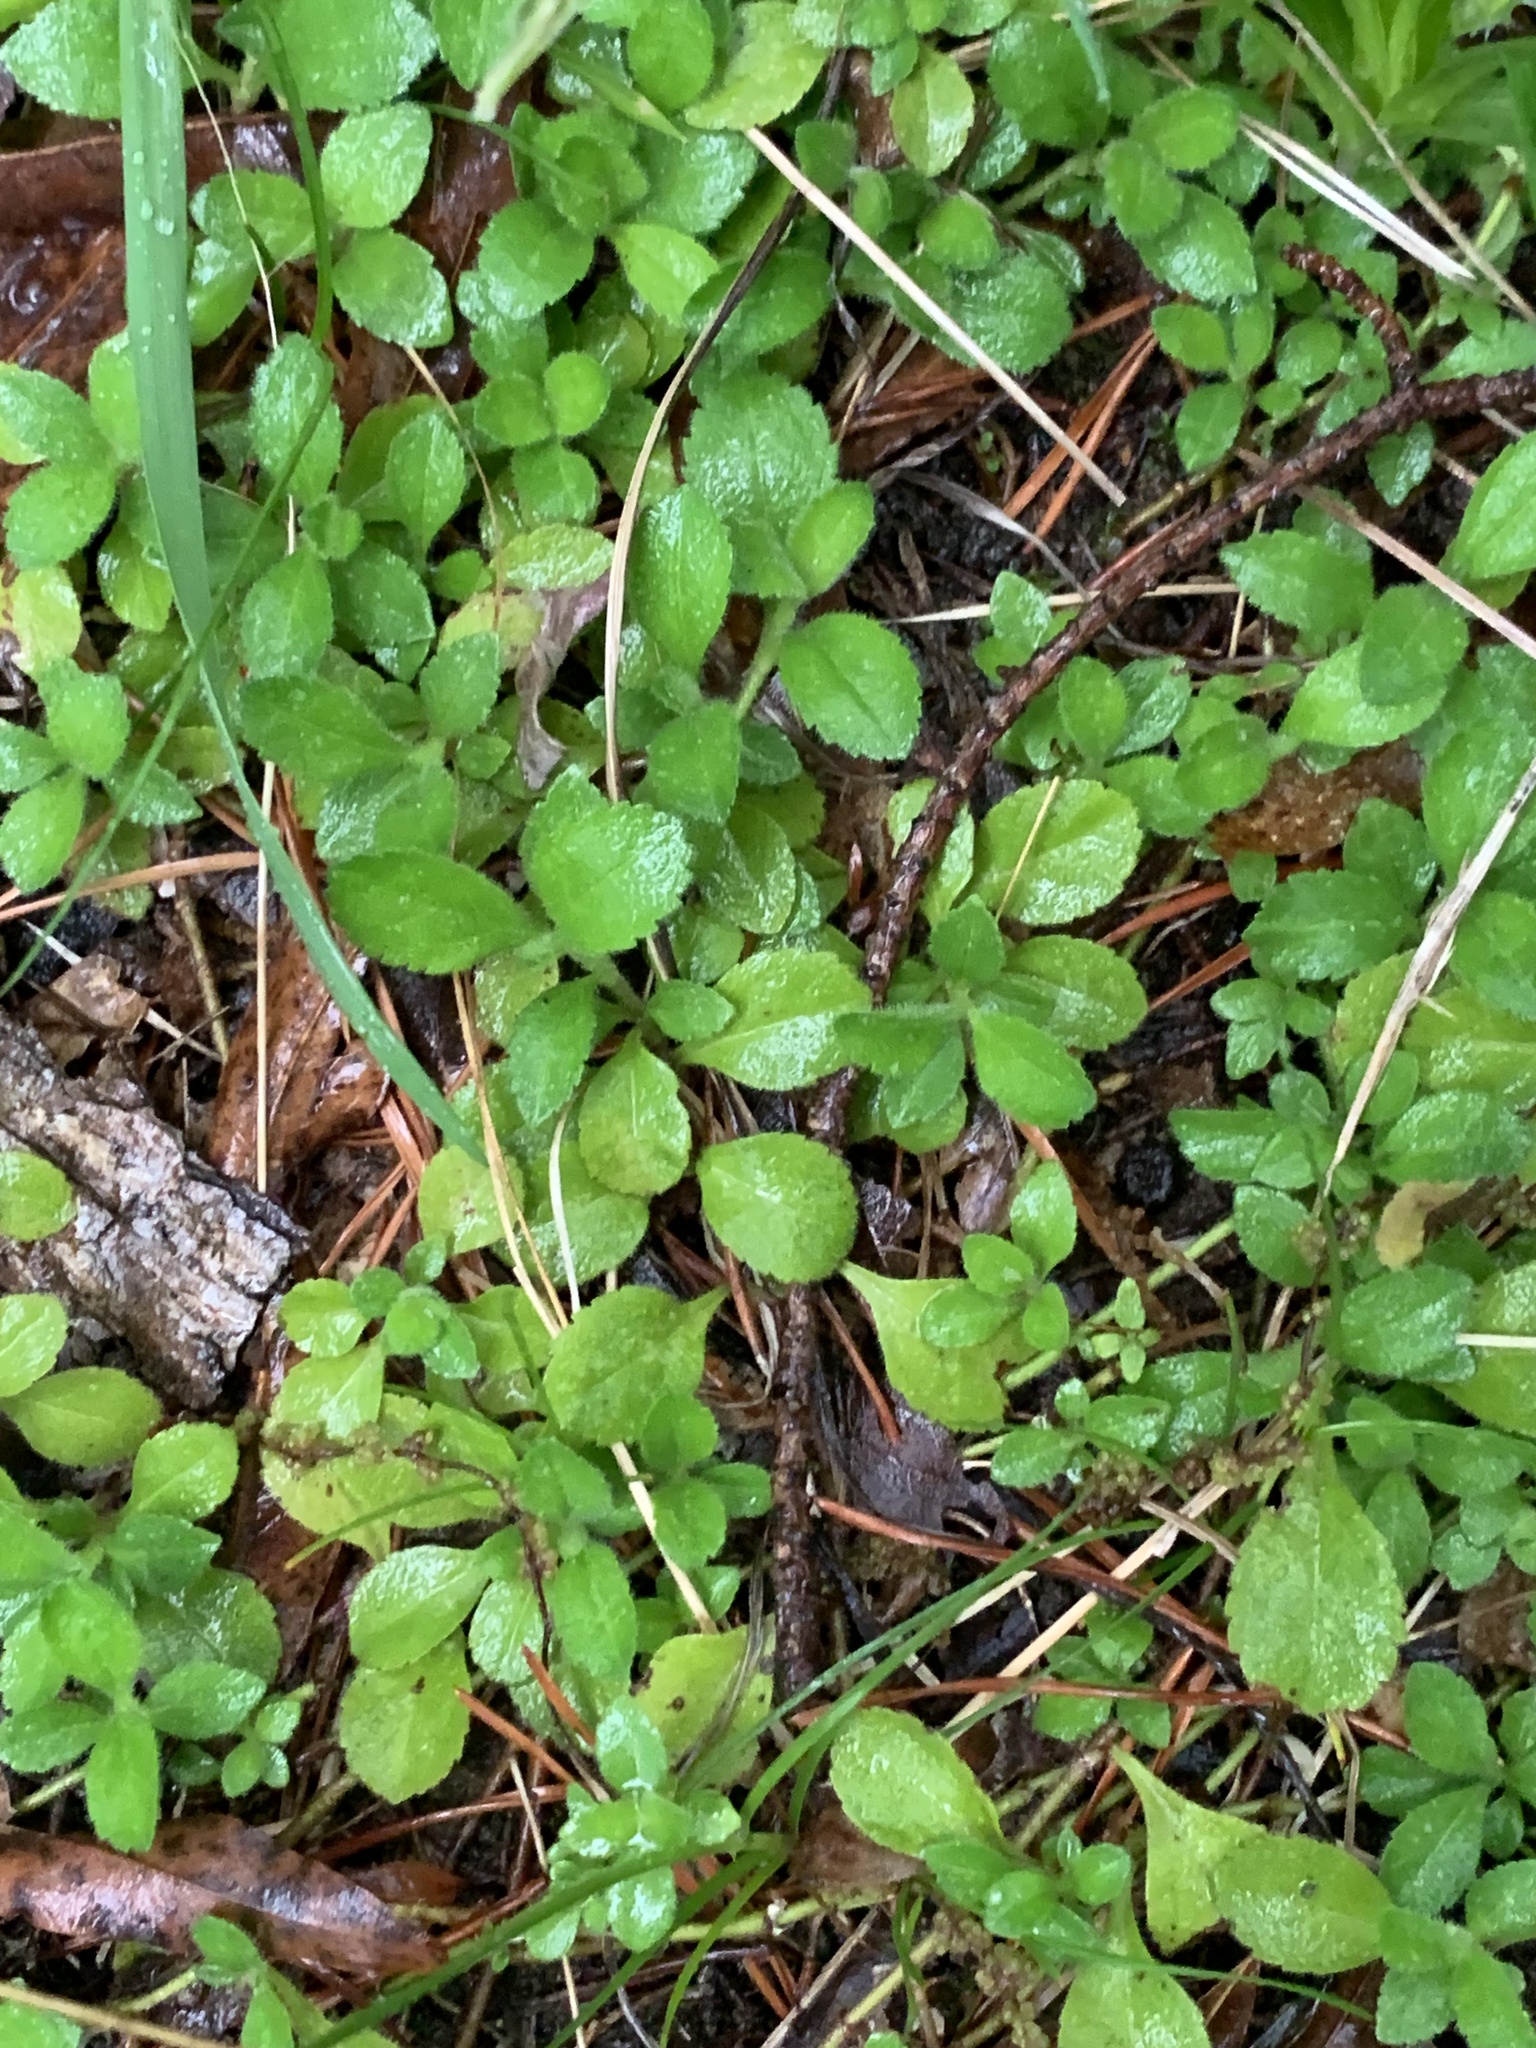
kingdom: Plantae
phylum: Tracheophyta
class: Magnoliopsida
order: Lamiales
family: Plantaginaceae
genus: Veronica
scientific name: Veronica officinalis
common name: Common speedwell
